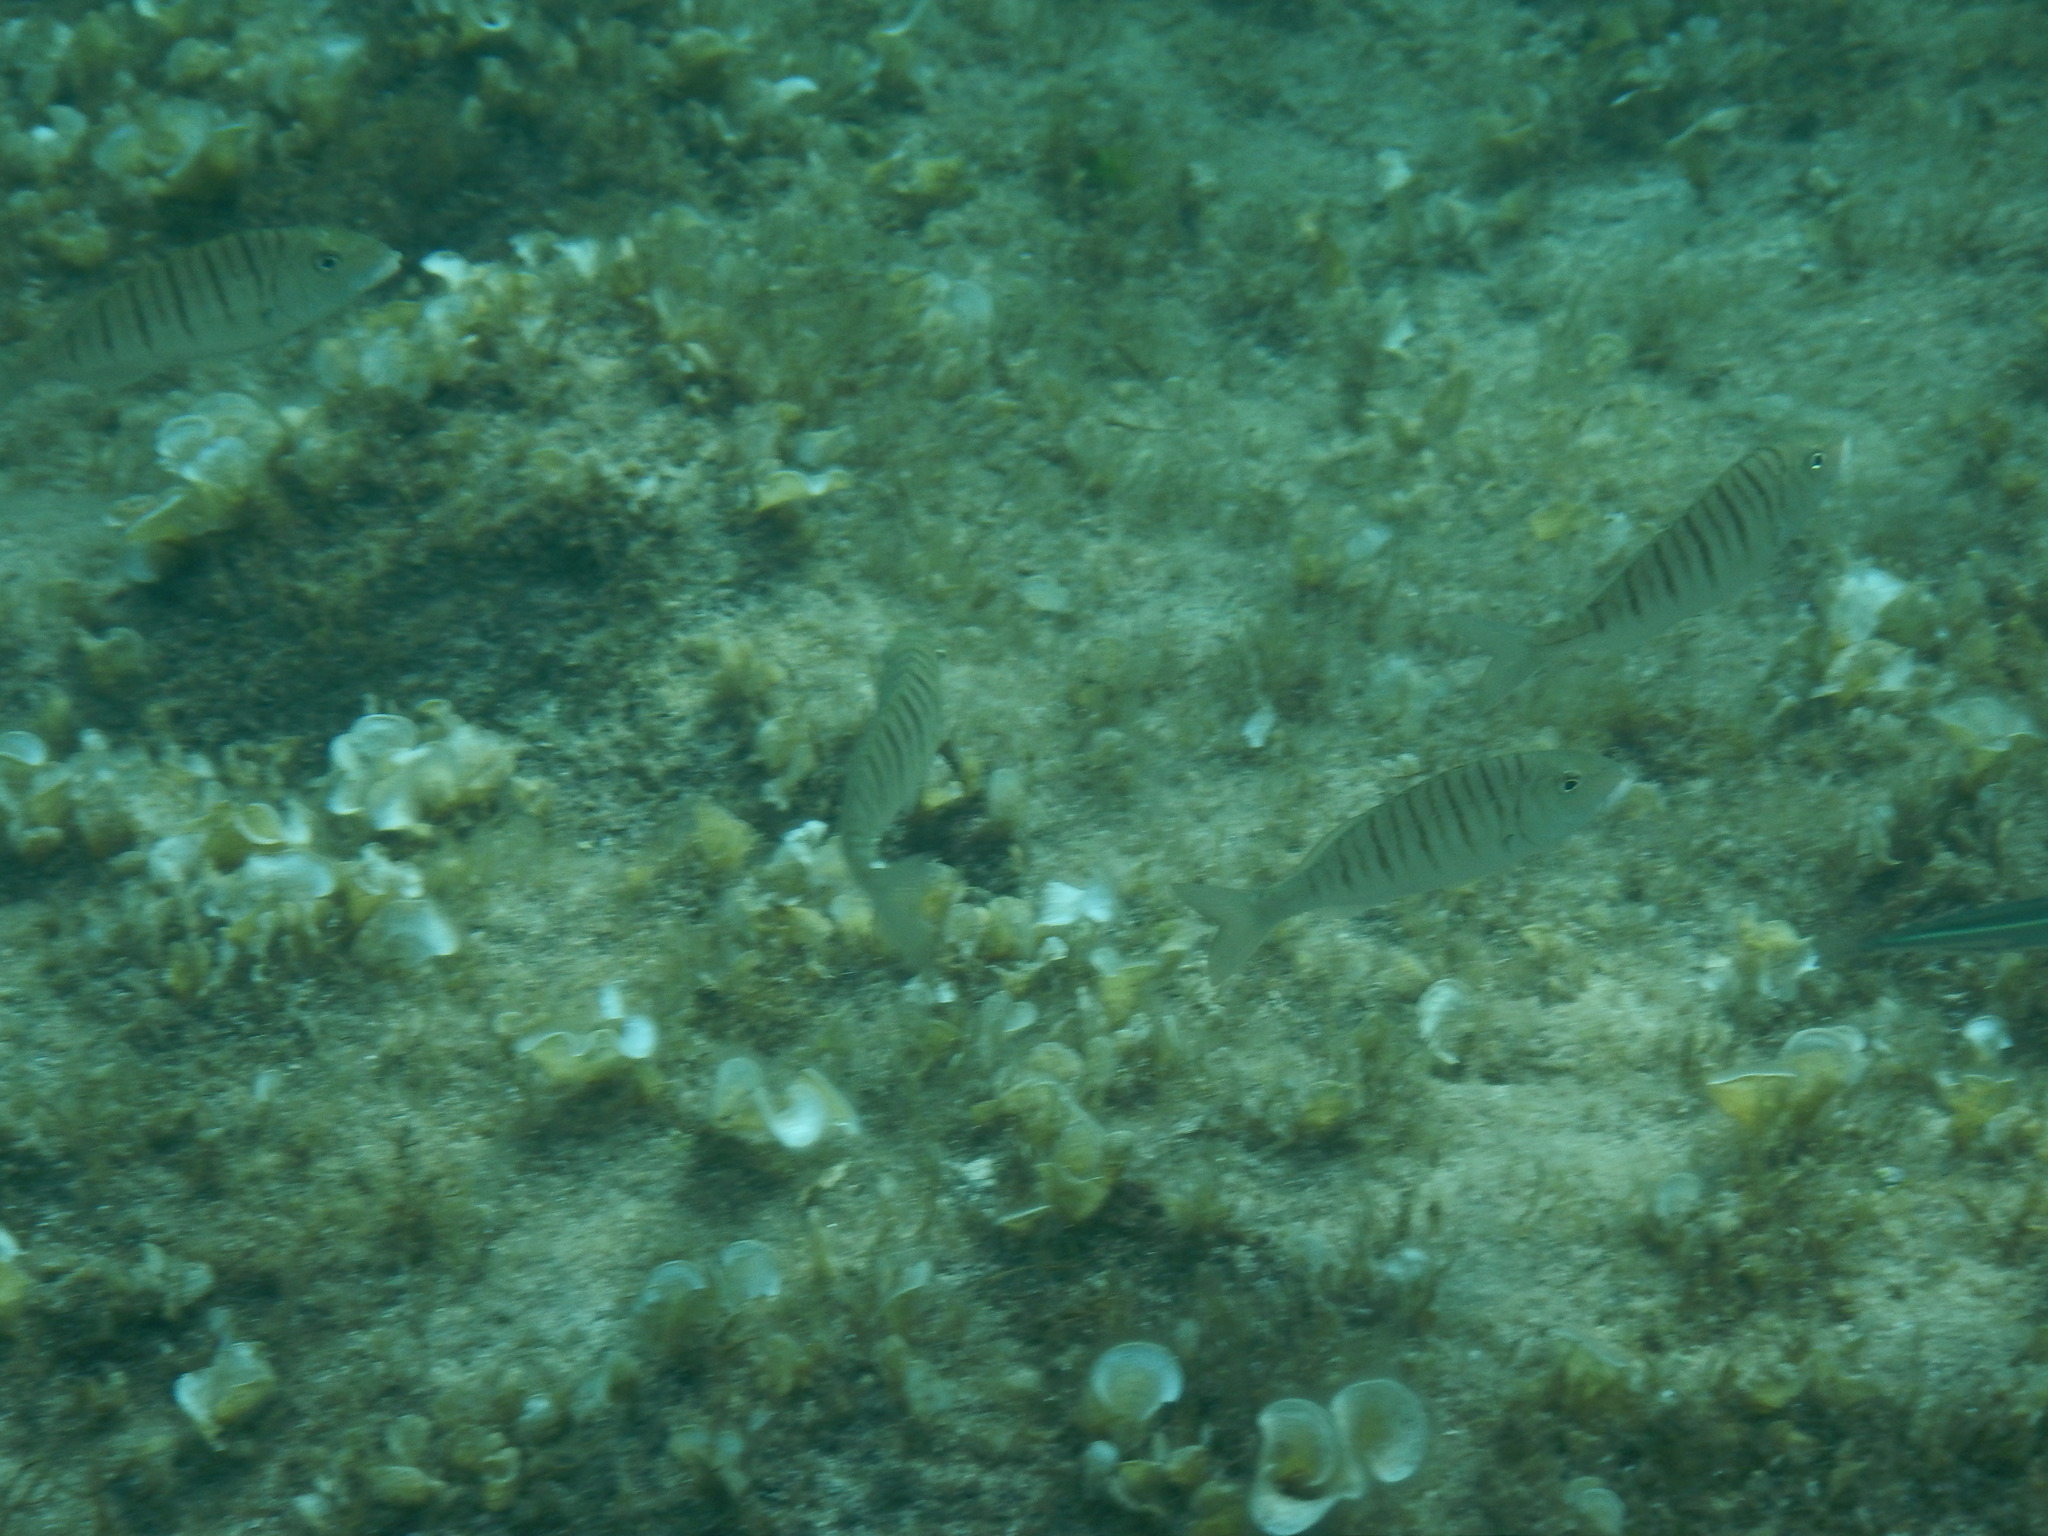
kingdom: Animalia
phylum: Chordata
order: Perciformes
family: Sparidae
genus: Lithognathus
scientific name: Lithognathus mormyrus
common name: Sand steenbras
